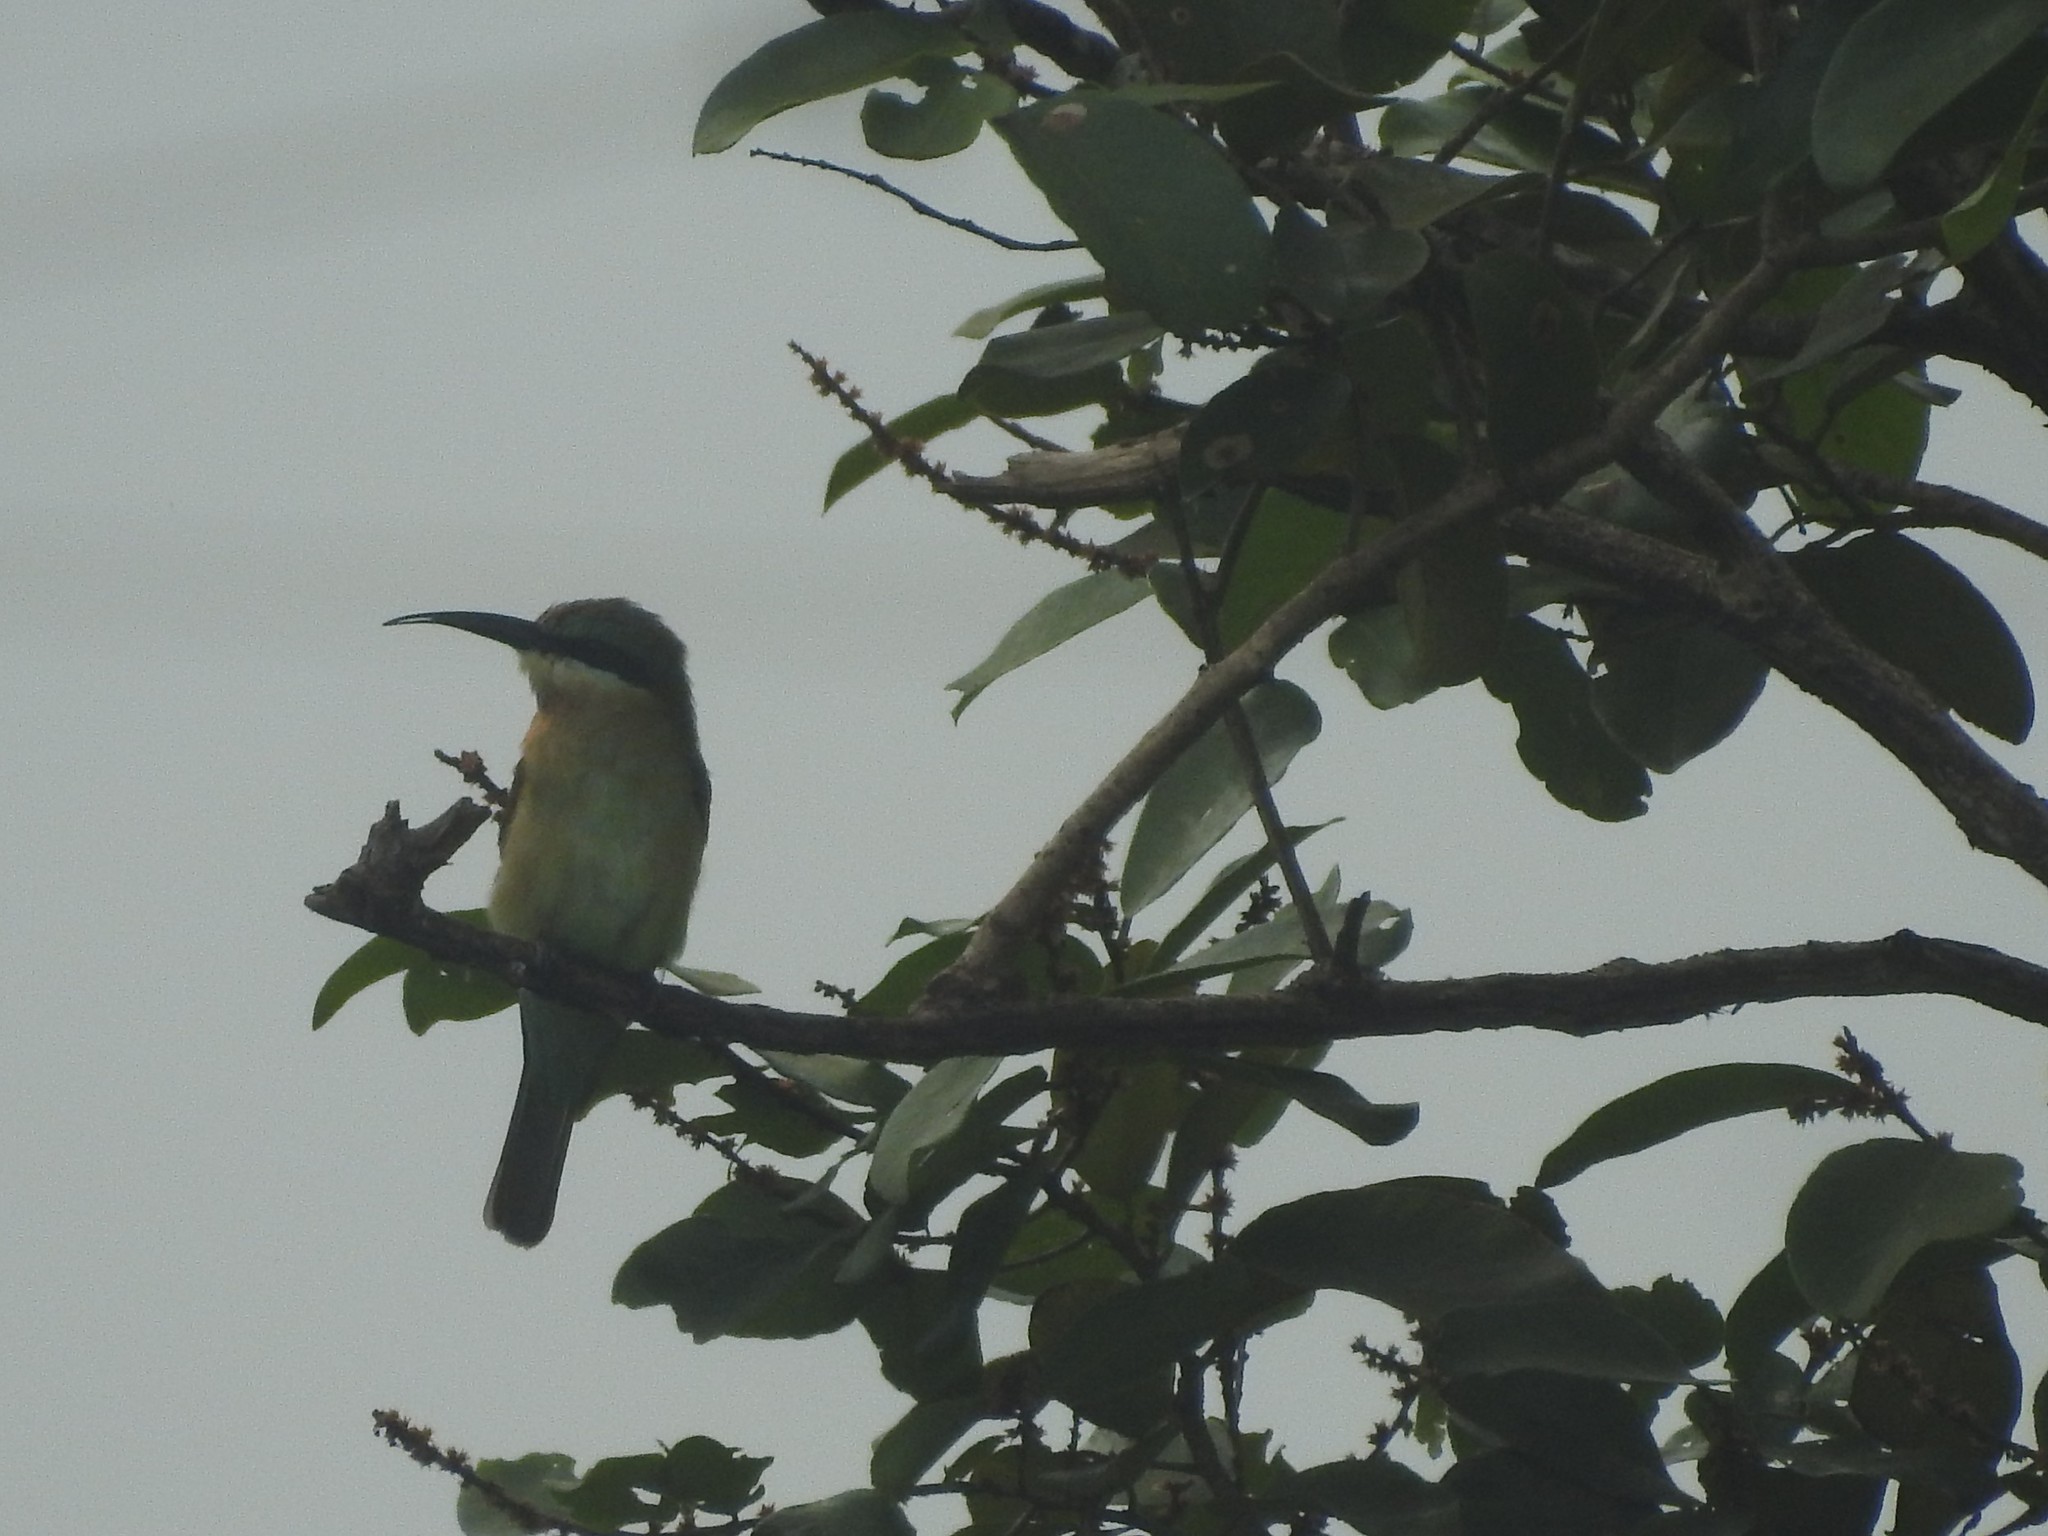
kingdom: Animalia
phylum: Chordata
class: Aves
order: Coraciiformes
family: Meropidae
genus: Merops
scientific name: Merops philippinus
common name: Blue-tailed bee-eater
